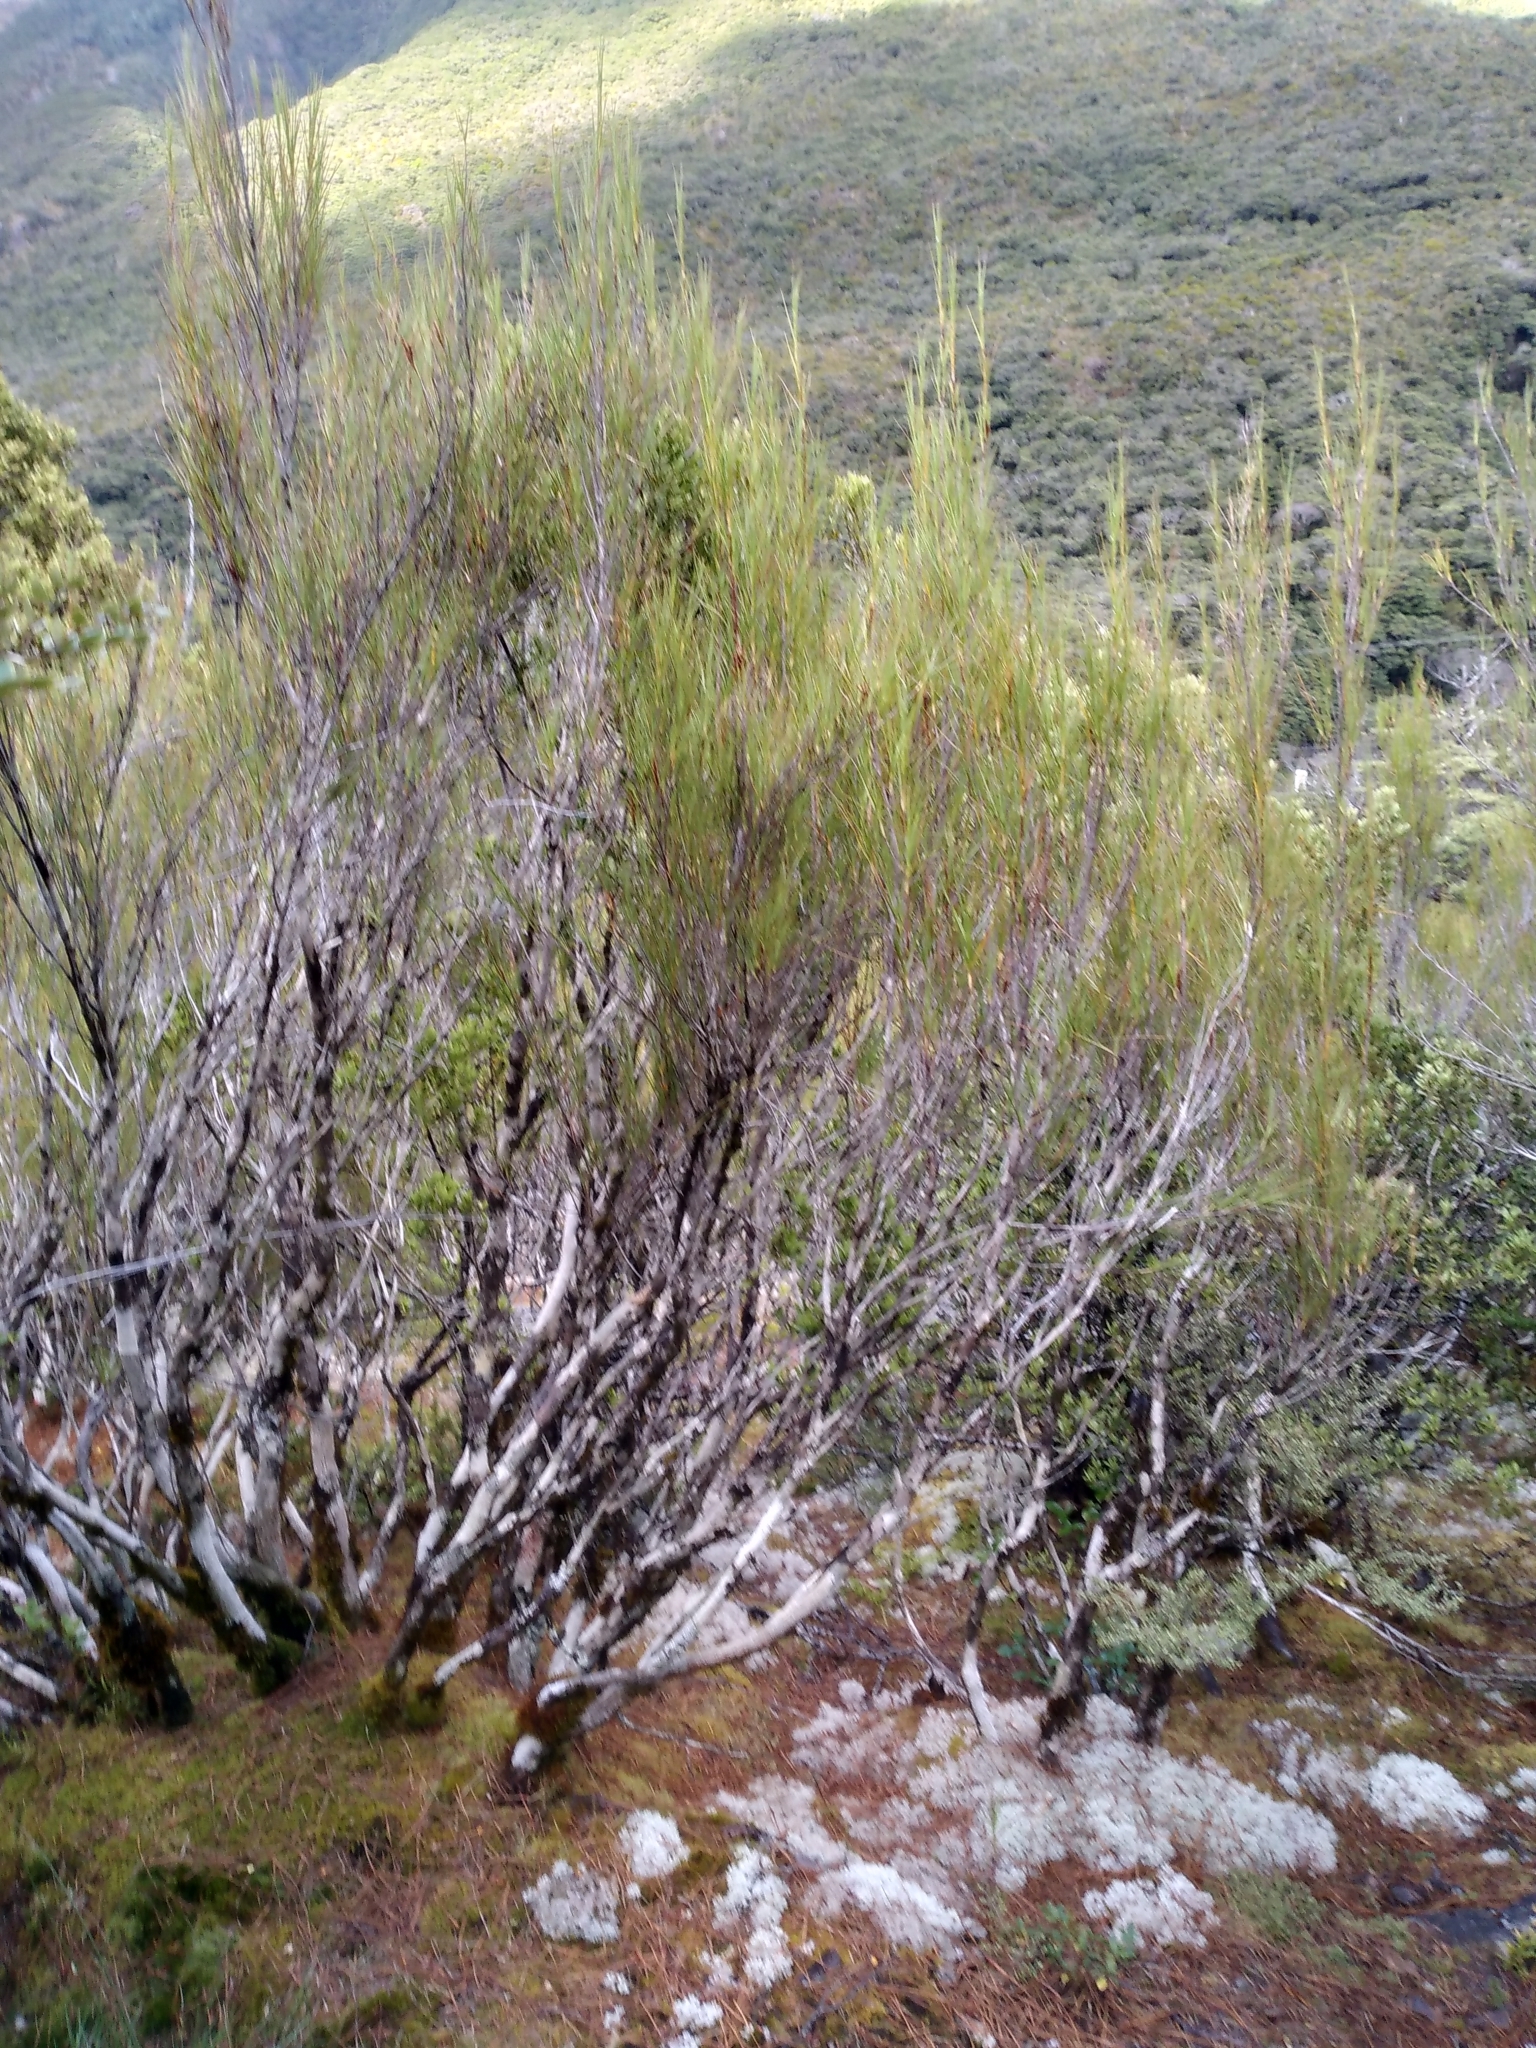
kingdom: Plantae
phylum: Tracheophyta
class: Magnoliopsida
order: Ericales
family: Ericaceae
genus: Dracophyllum
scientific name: Dracophyllum longifolium
